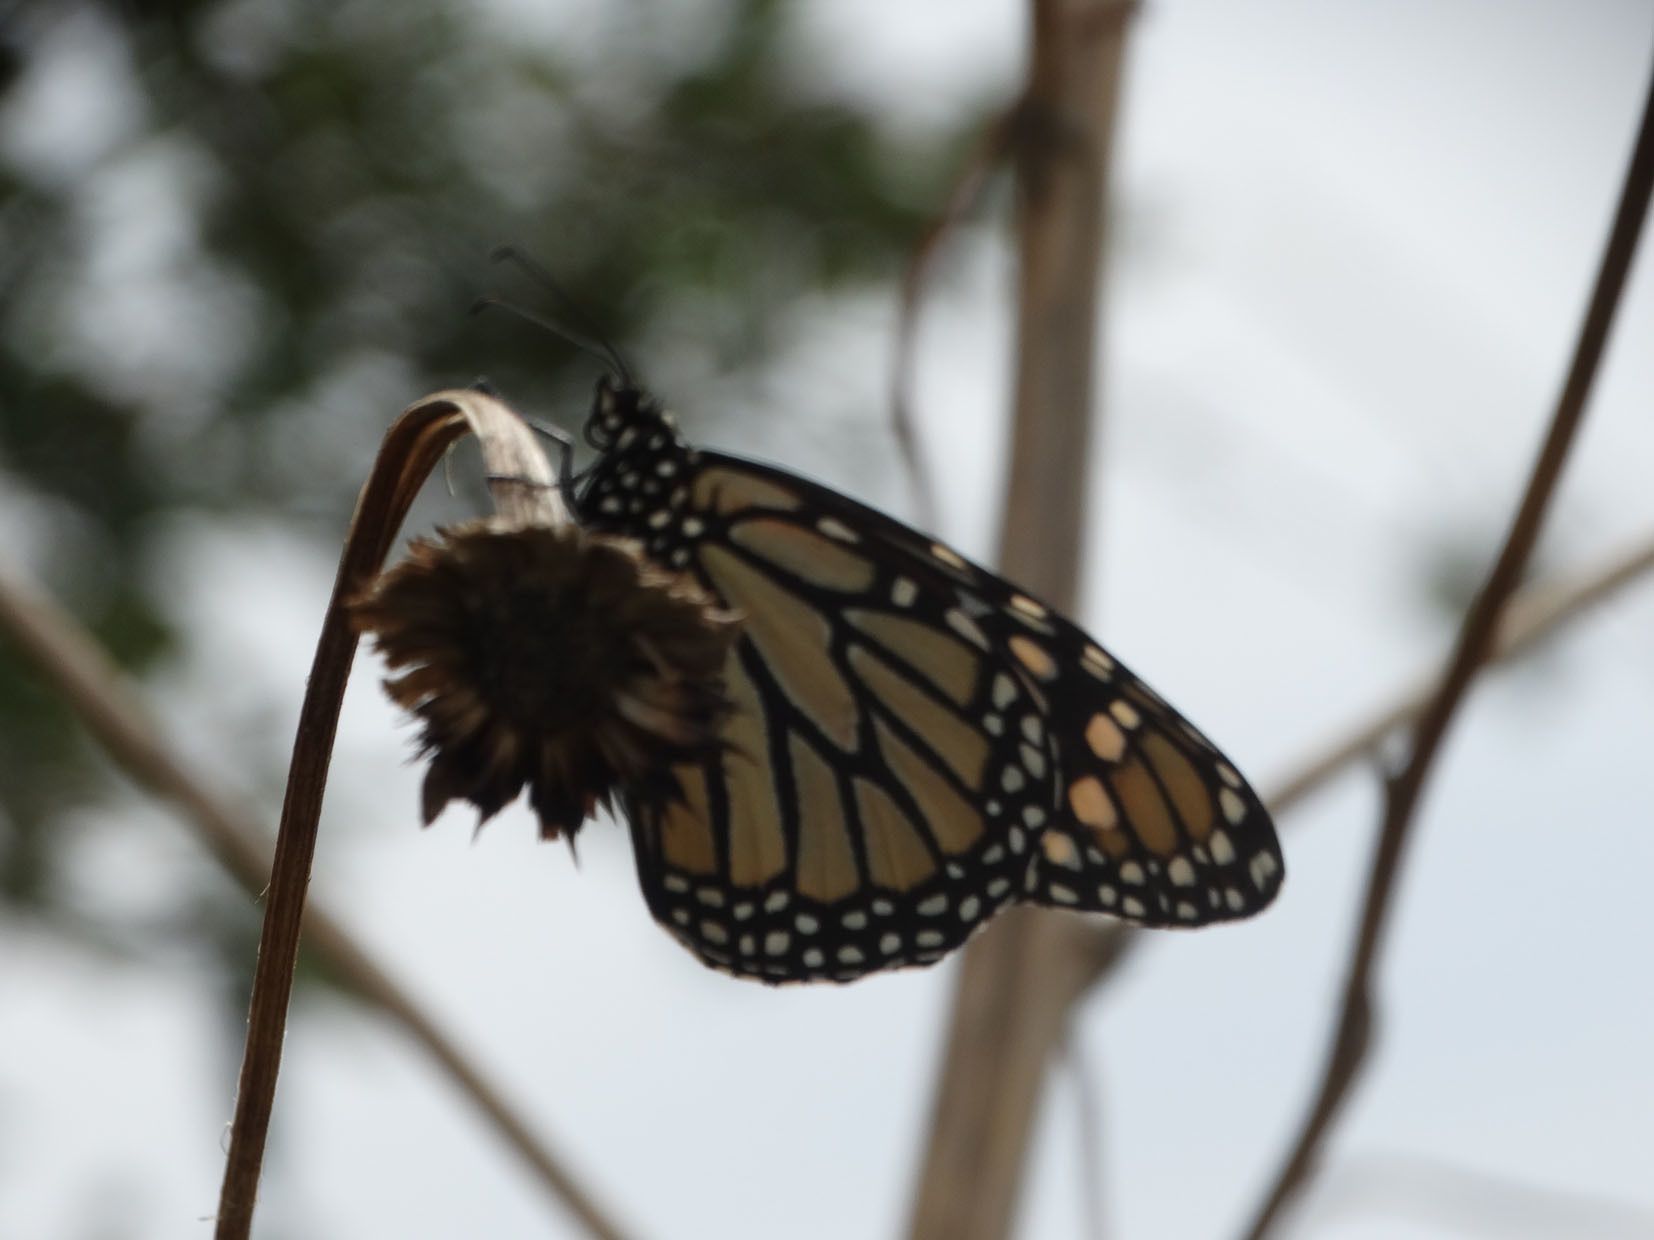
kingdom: Animalia
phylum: Arthropoda
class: Insecta
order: Lepidoptera
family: Nymphalidae
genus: Danaus
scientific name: Danaus plexippus
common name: Monarch
